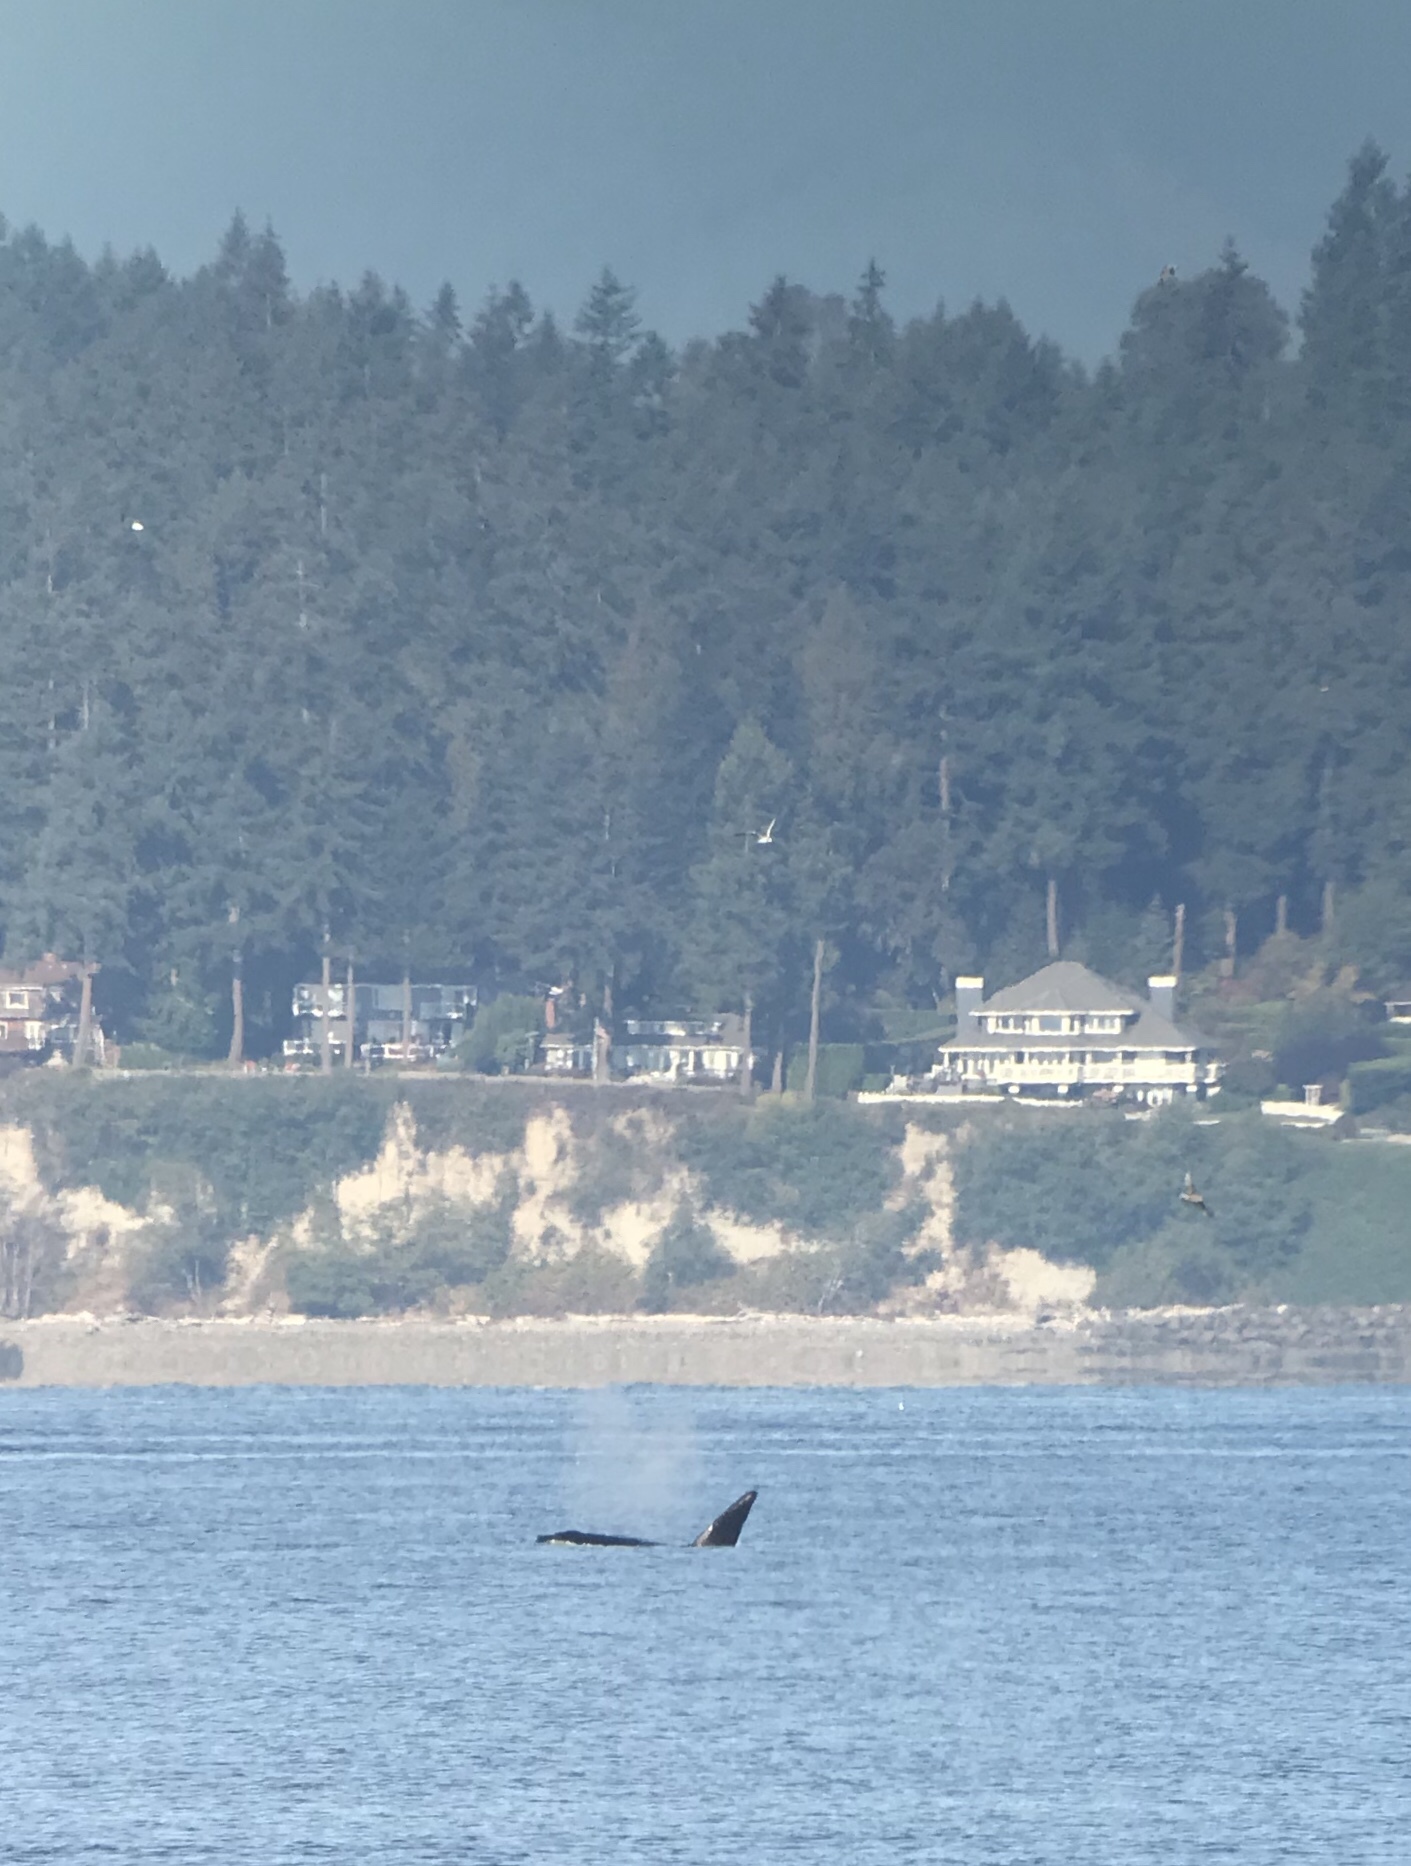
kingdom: Animalia
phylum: Chordata
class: Mammalia
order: Cetacea
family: Delphinidae
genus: Orcinus
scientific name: Orcinus orca
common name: Killer whale
